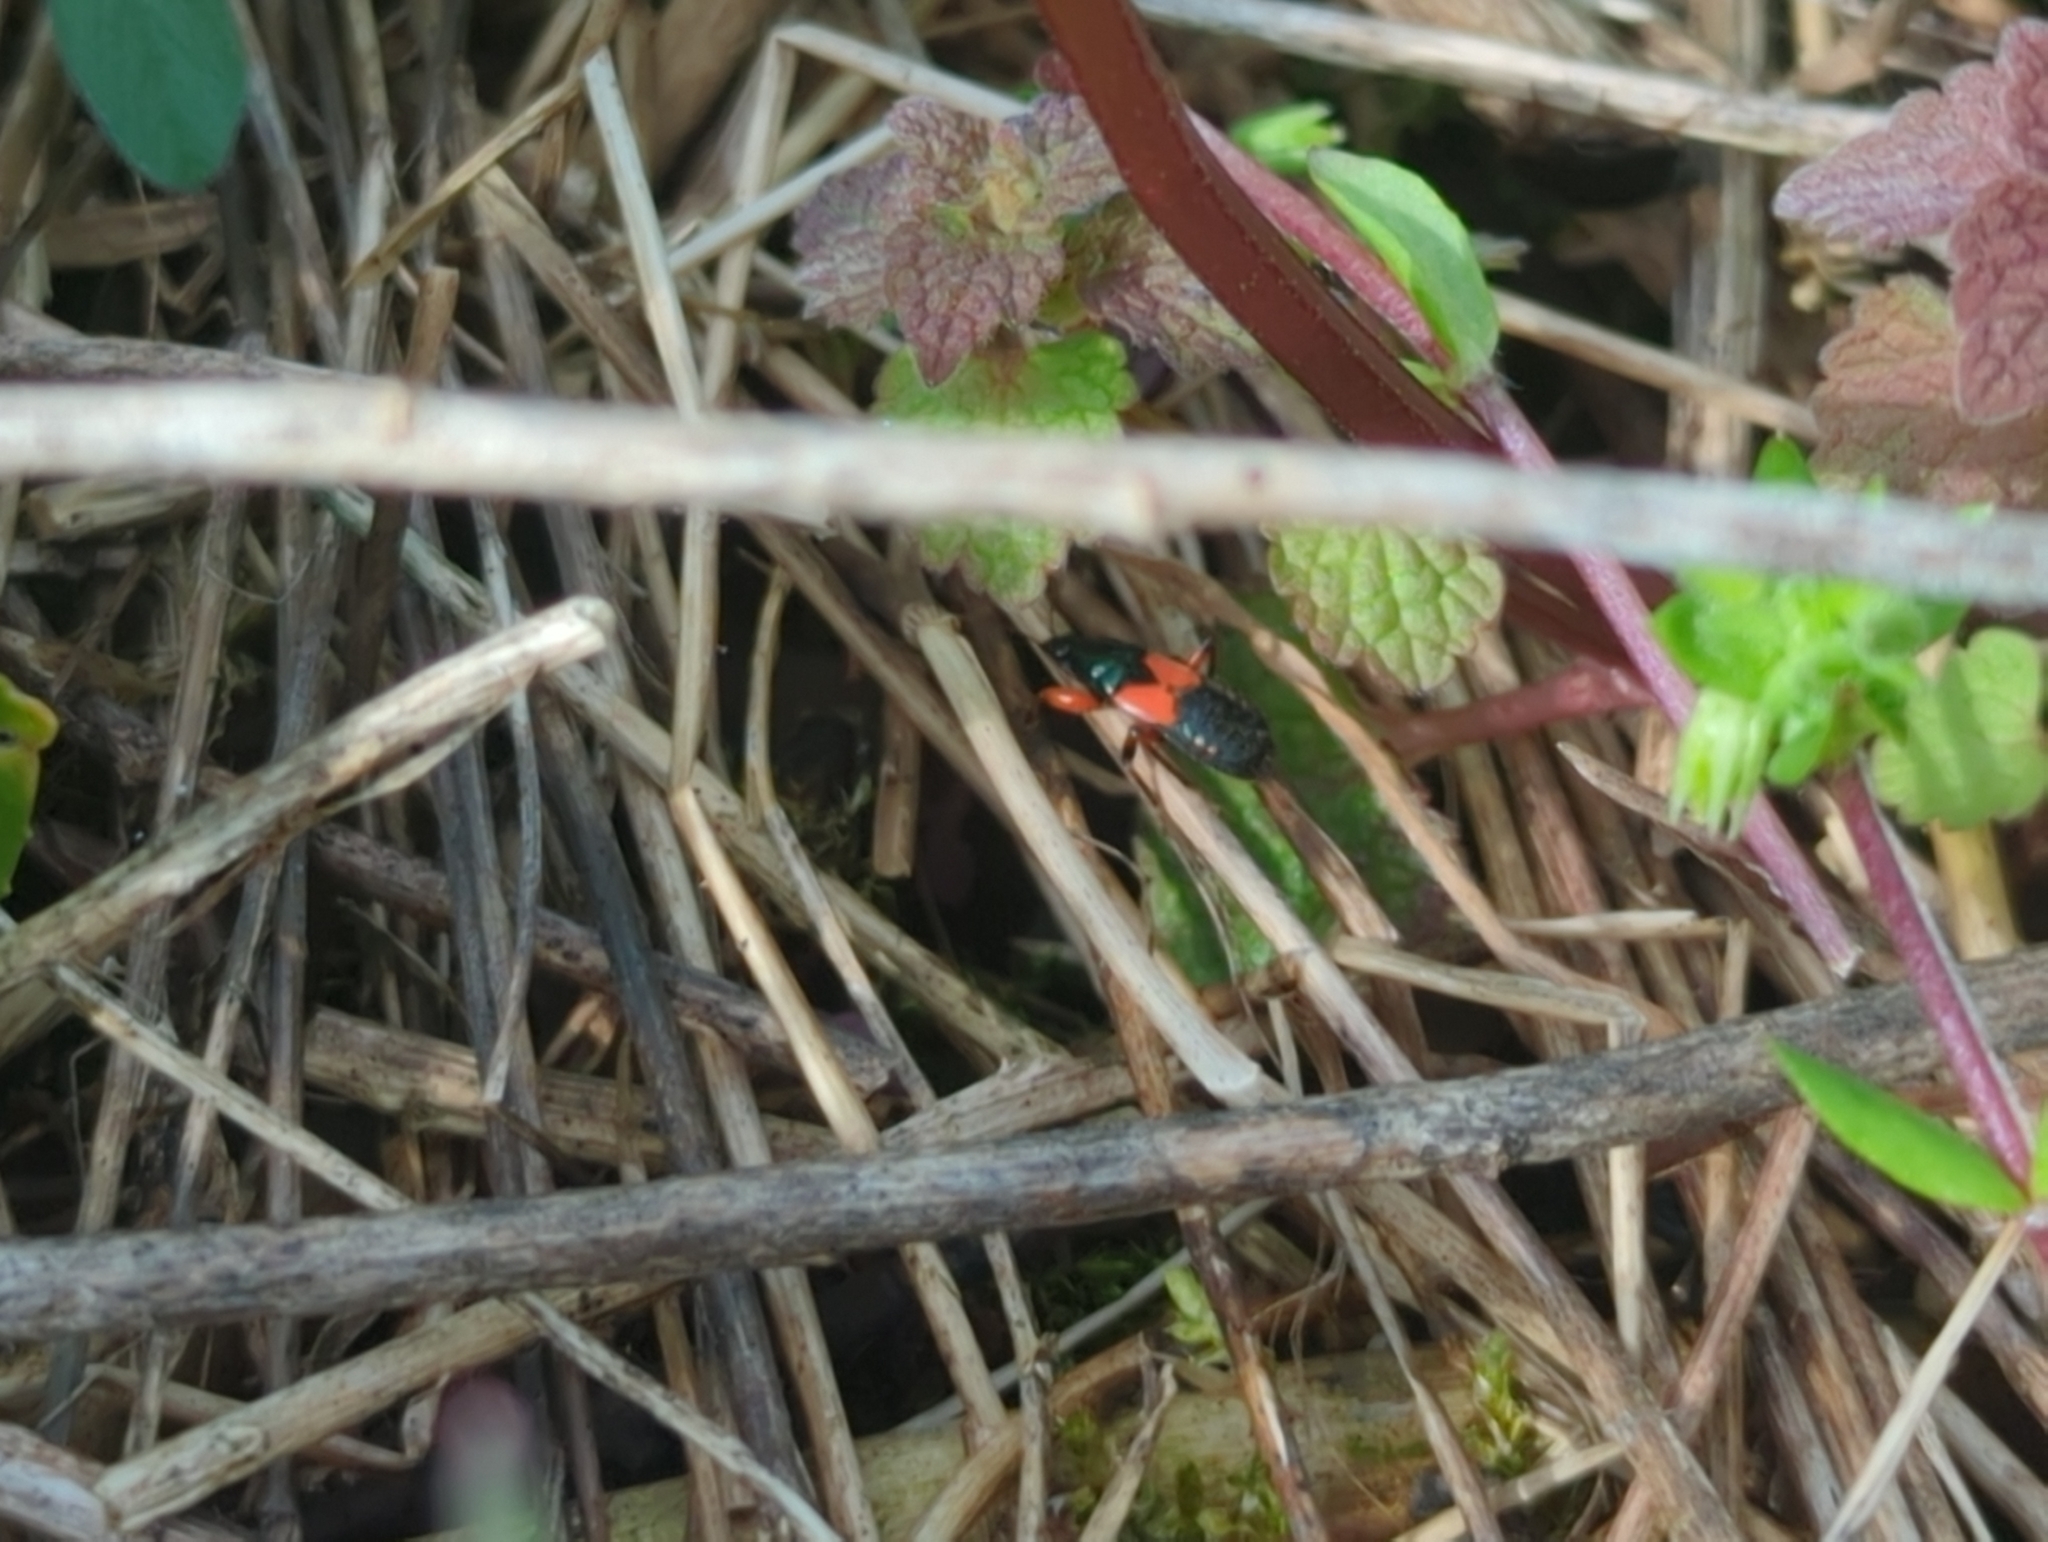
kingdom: Animalia
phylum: Arthropoda
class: Insecta
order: Hemiptera
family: Nabidae
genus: Prostemma
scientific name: Prostemma aeneicolle
